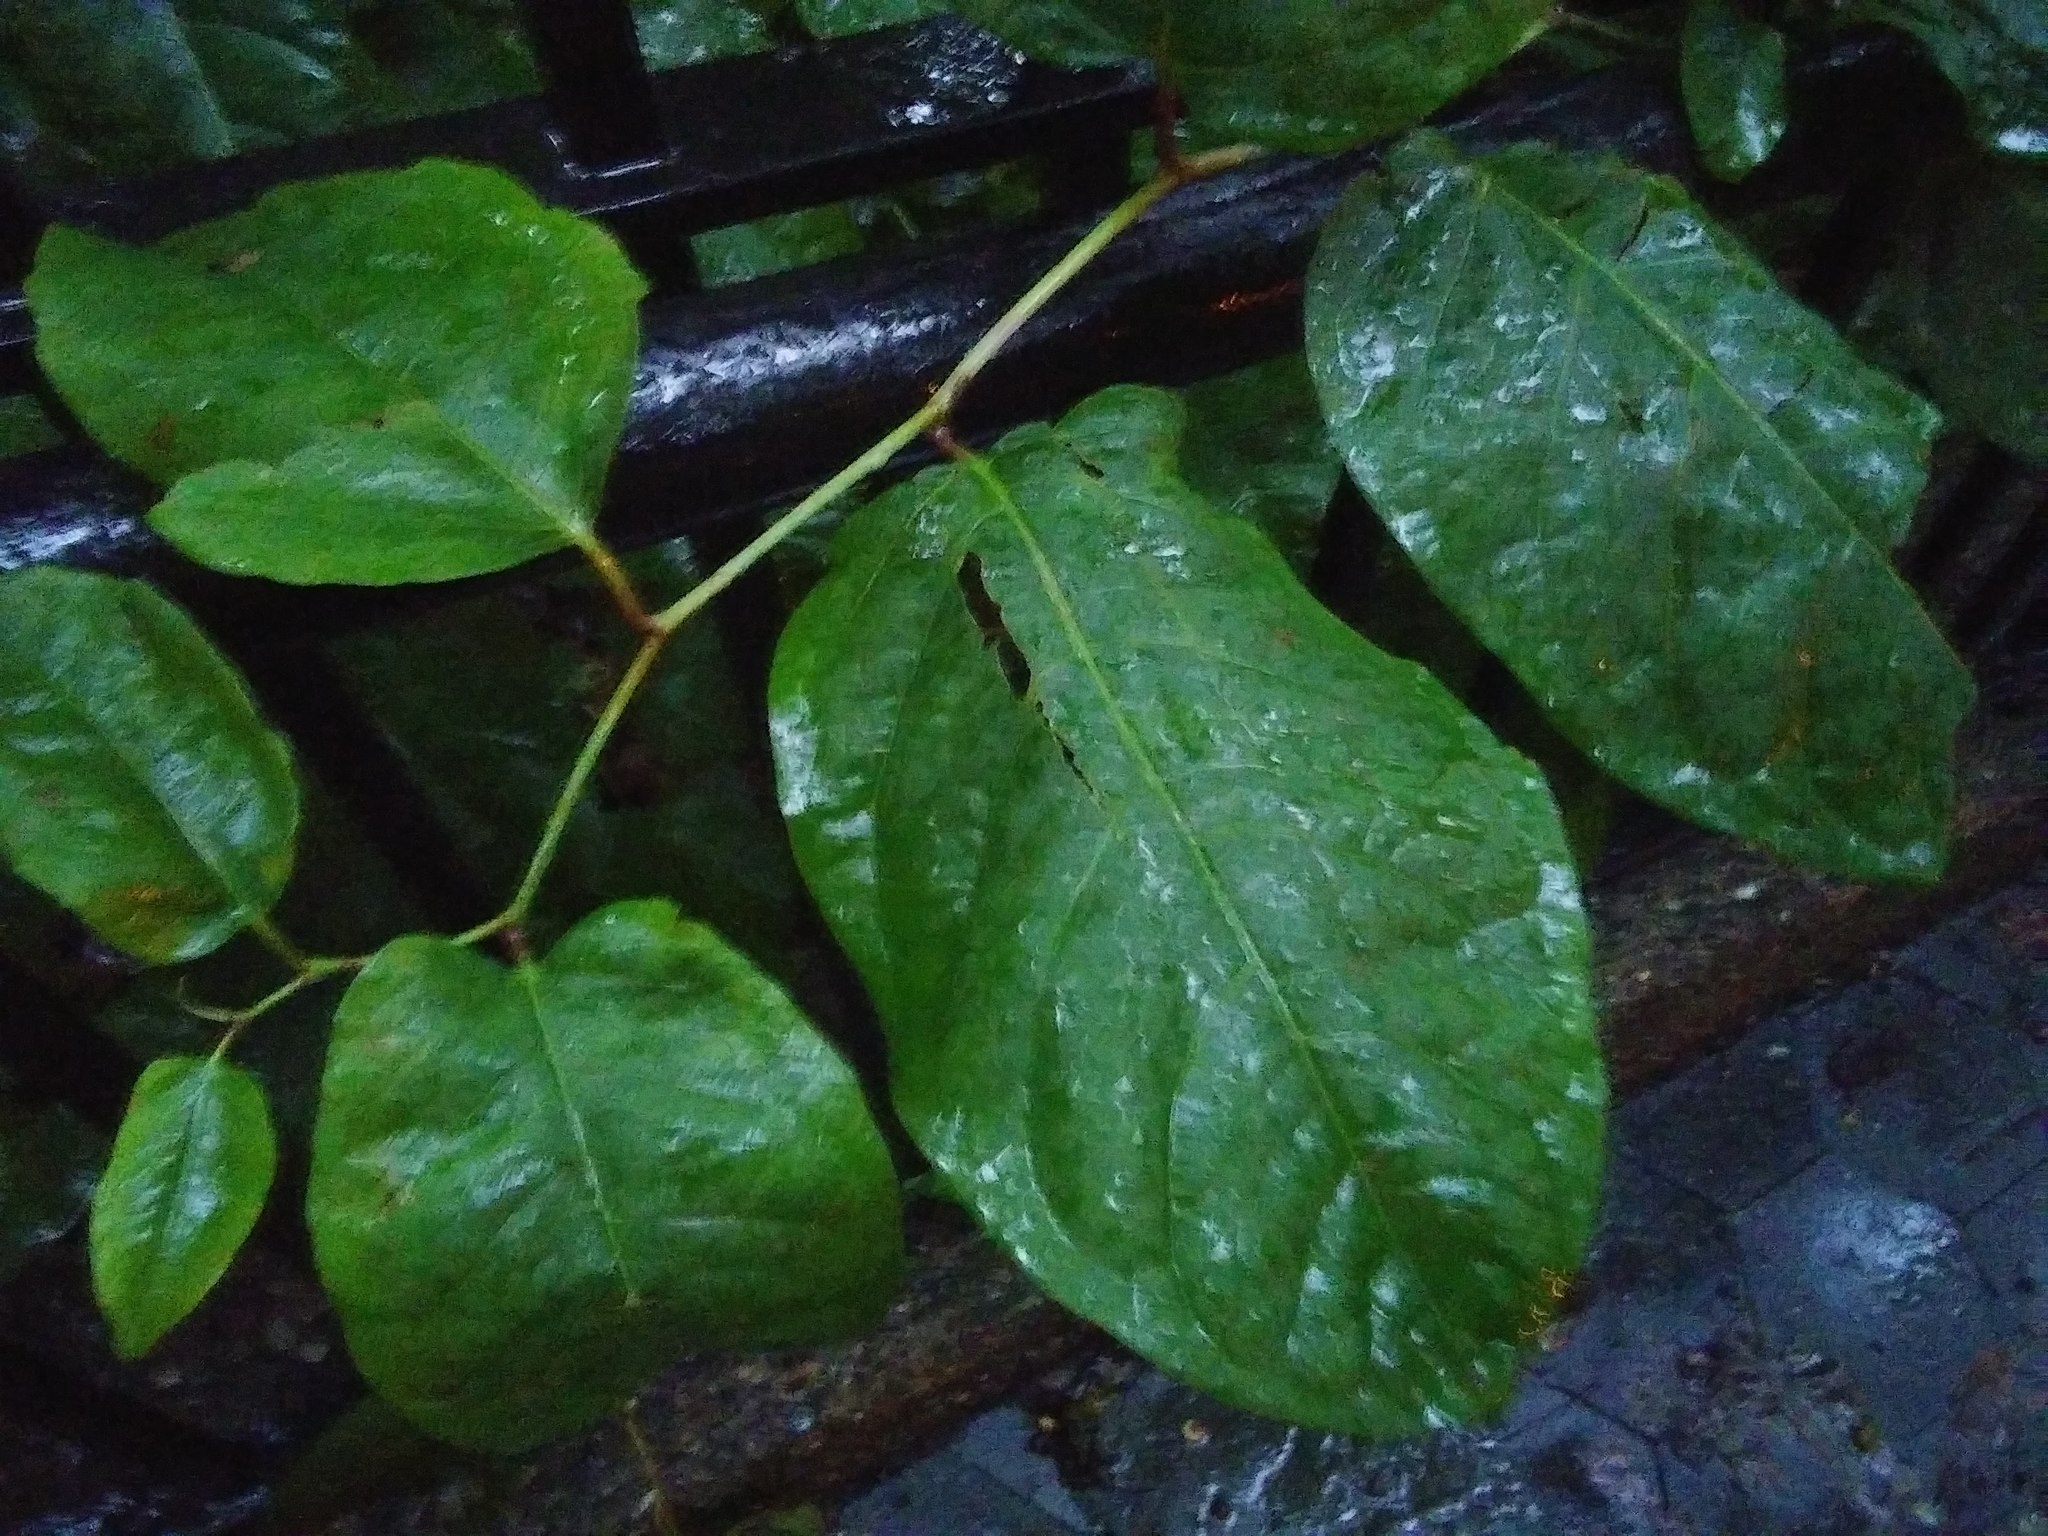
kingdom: Plantae
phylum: Tracheophyta
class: Magnoliopsida
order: Caryophyllales
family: Polygonaceae
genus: Reynoutria
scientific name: Reynoutria
